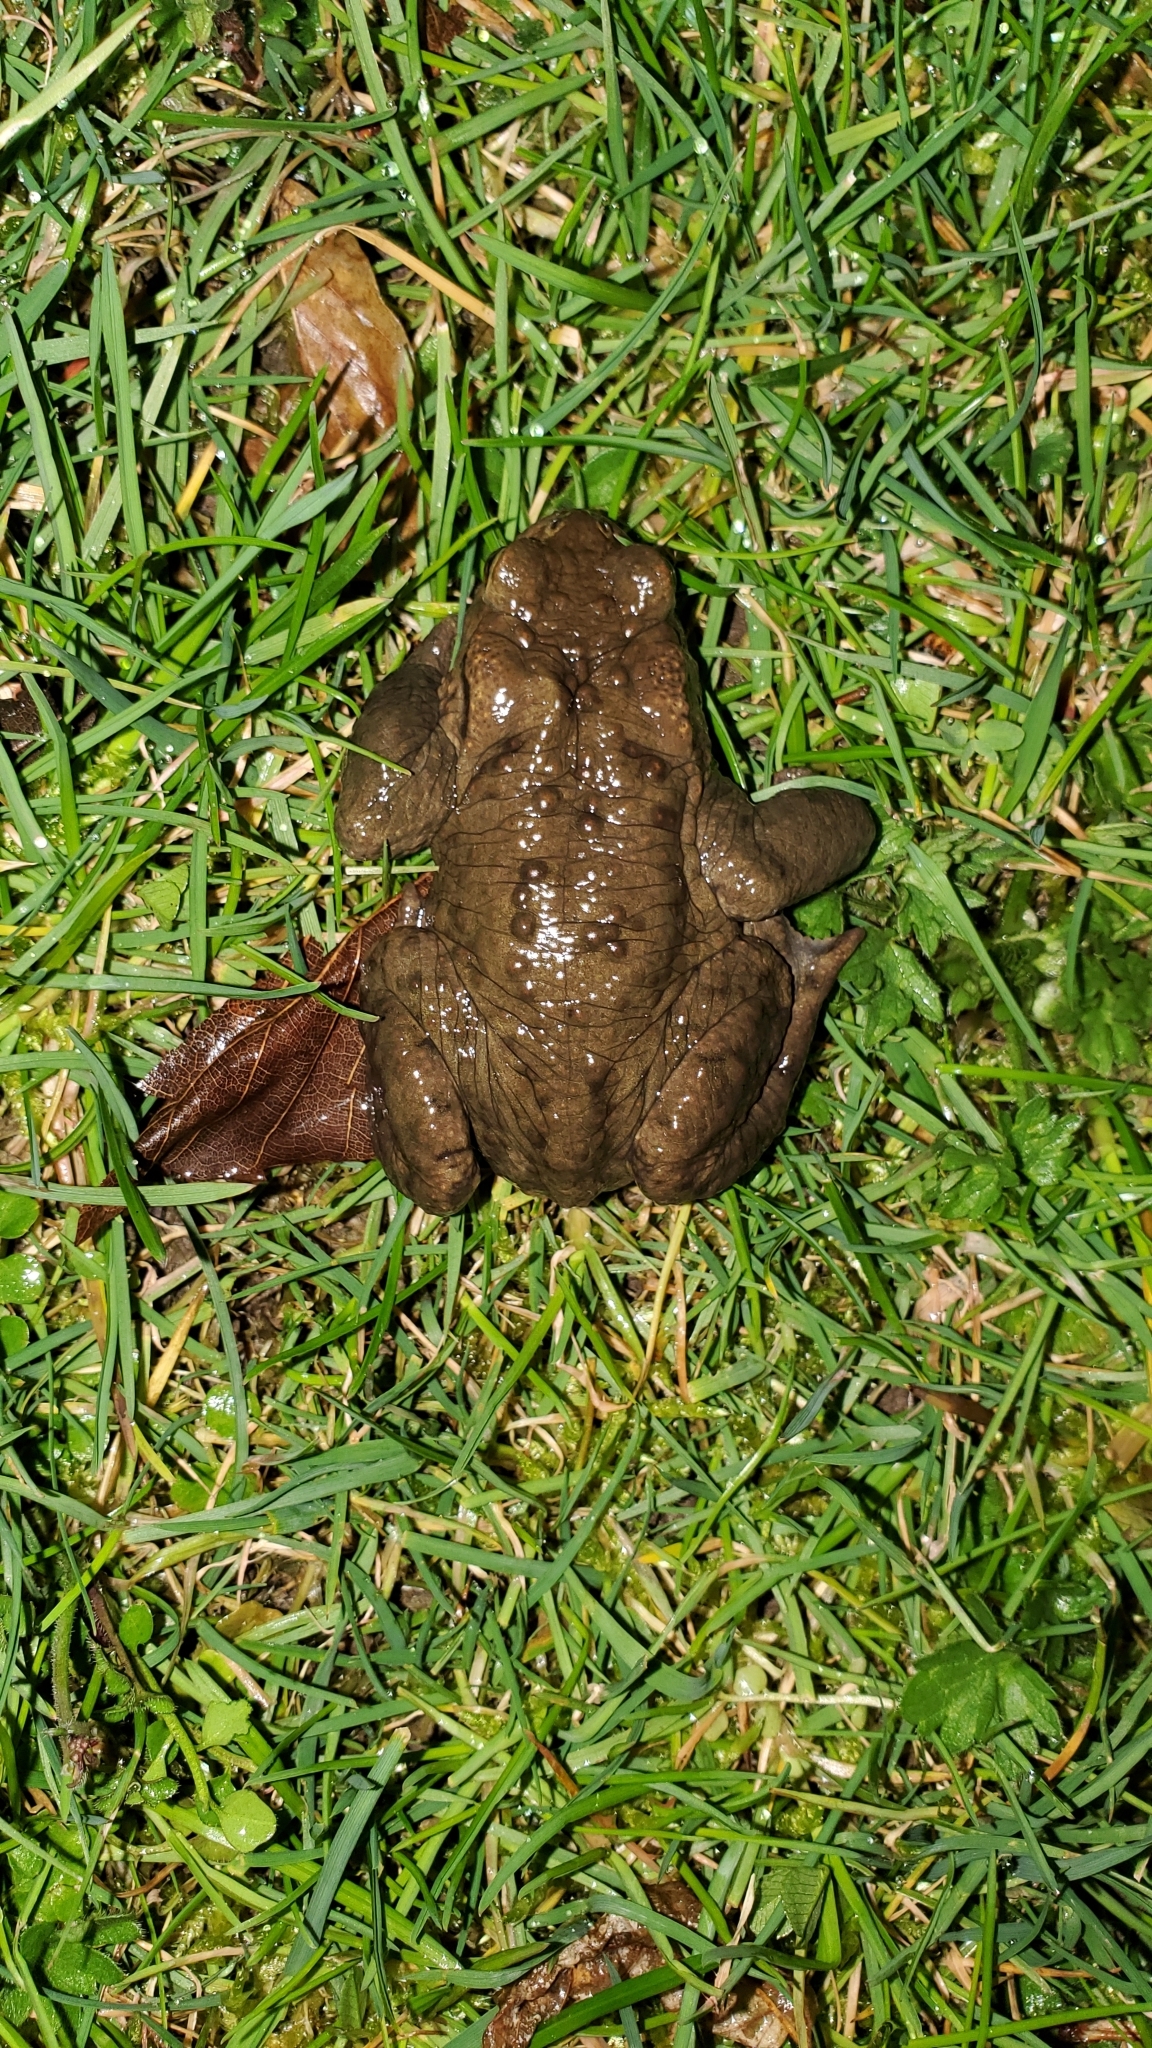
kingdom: Animalia
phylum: Chordata
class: Amphibia
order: Anura
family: Bufonidae
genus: Bufo
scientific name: Bufo bufo
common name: Common toad
